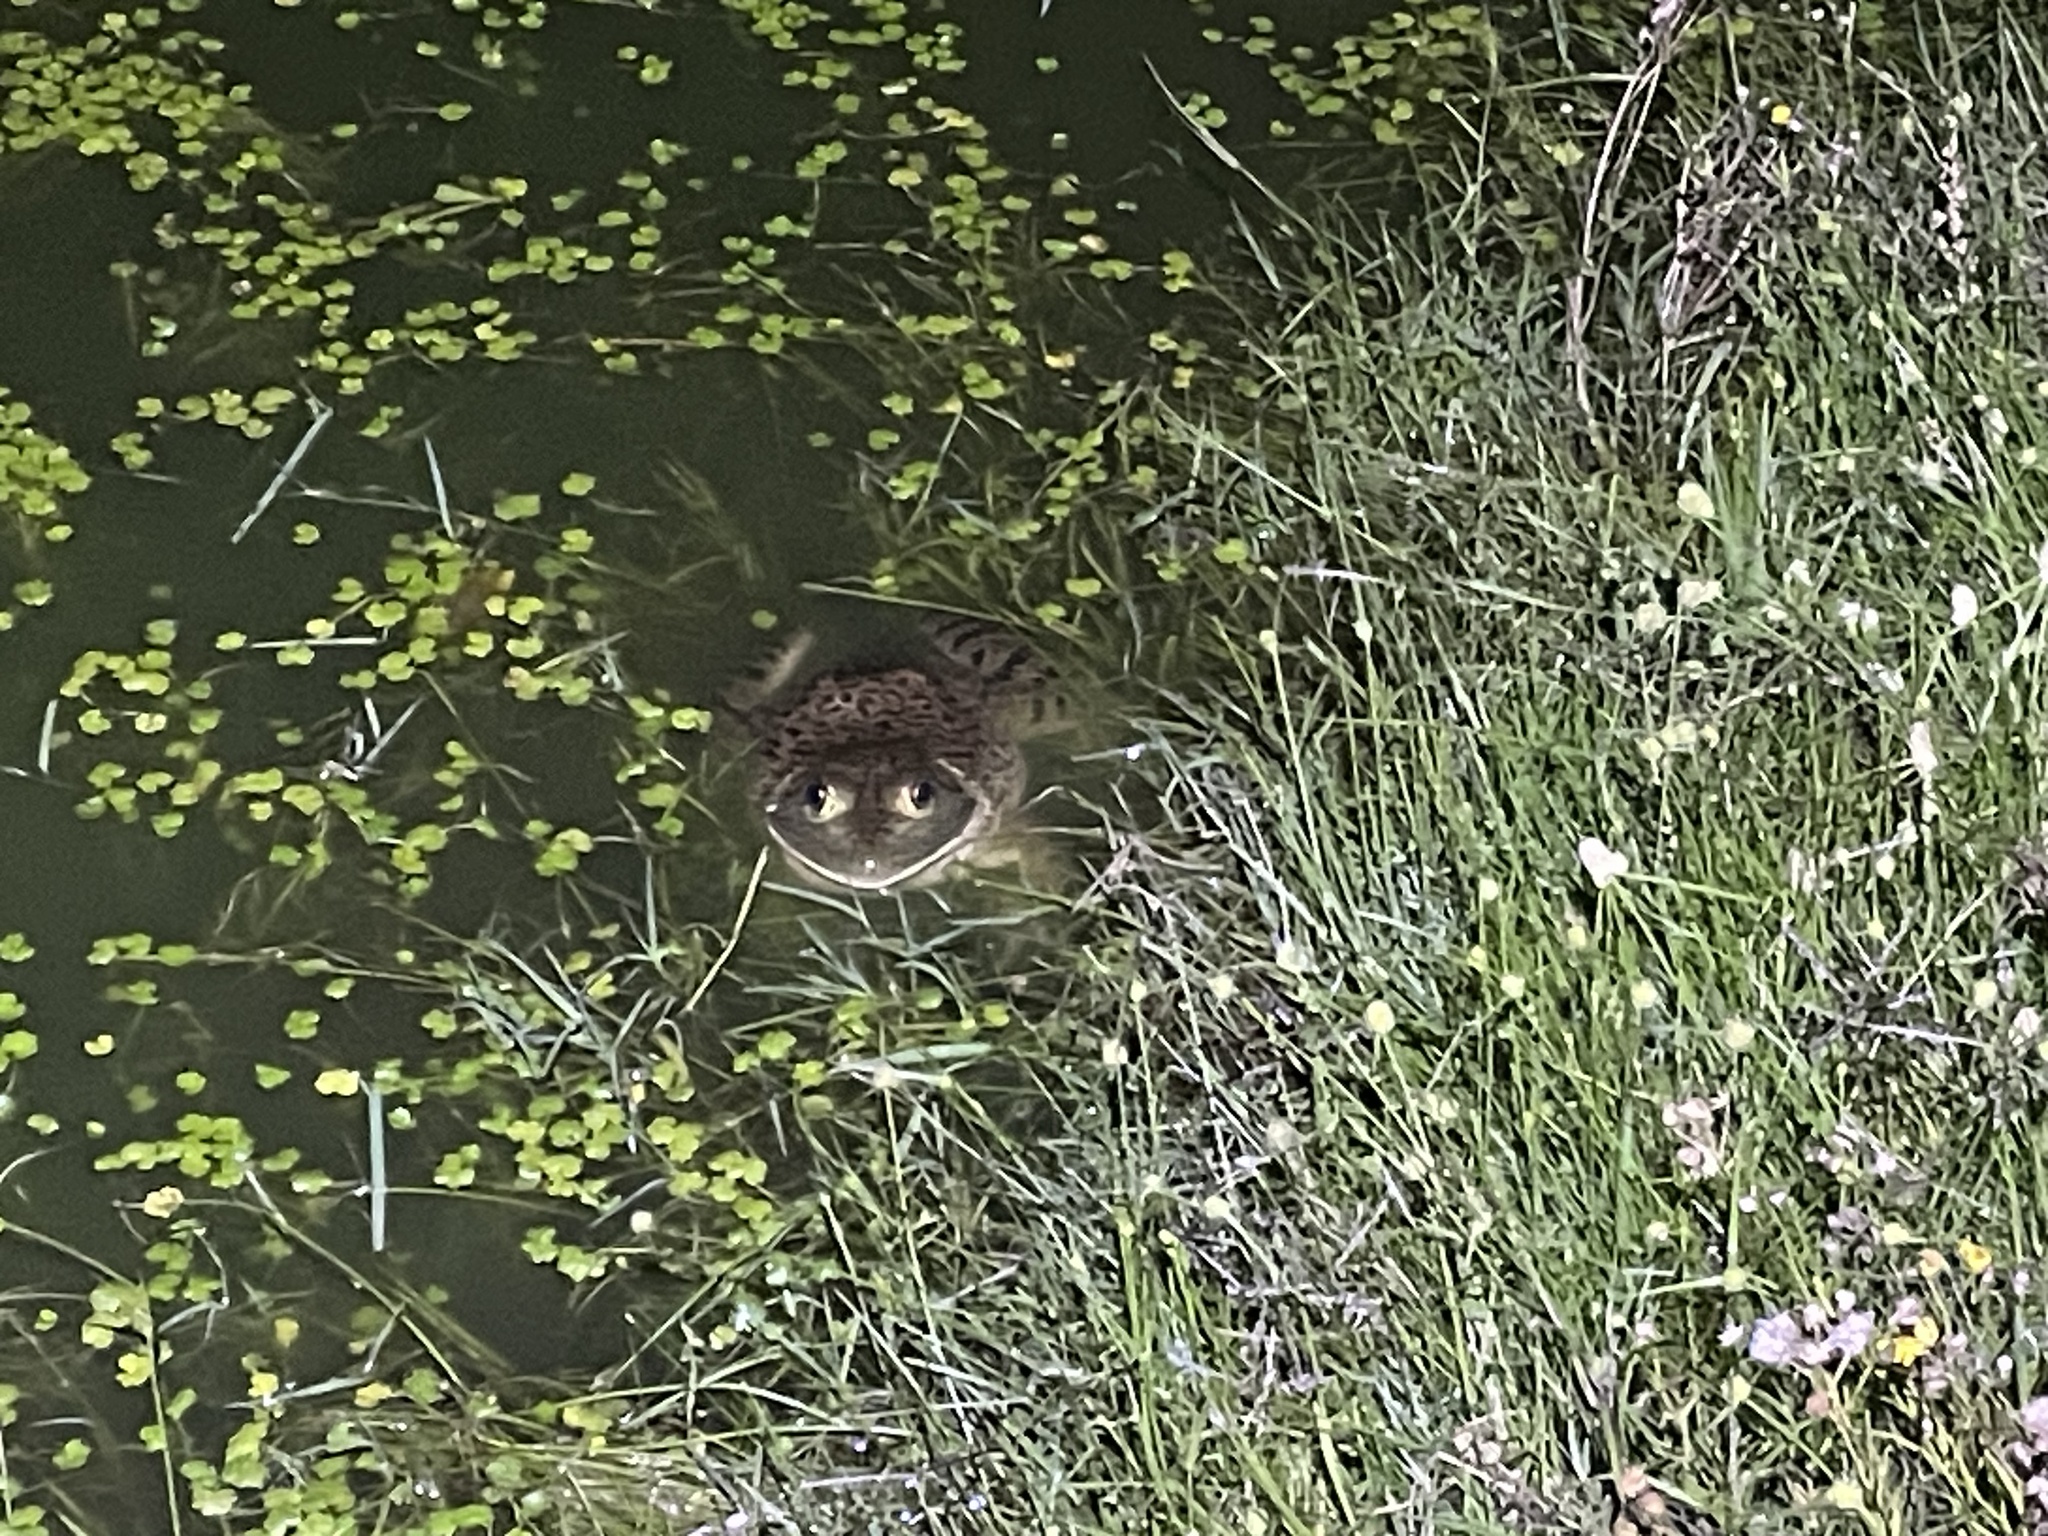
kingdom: Animalia
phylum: Chordata
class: Amphibia
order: Anura
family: Ranidae
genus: Lithobates
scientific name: Lithobates catesbeianus
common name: American bullfrog
